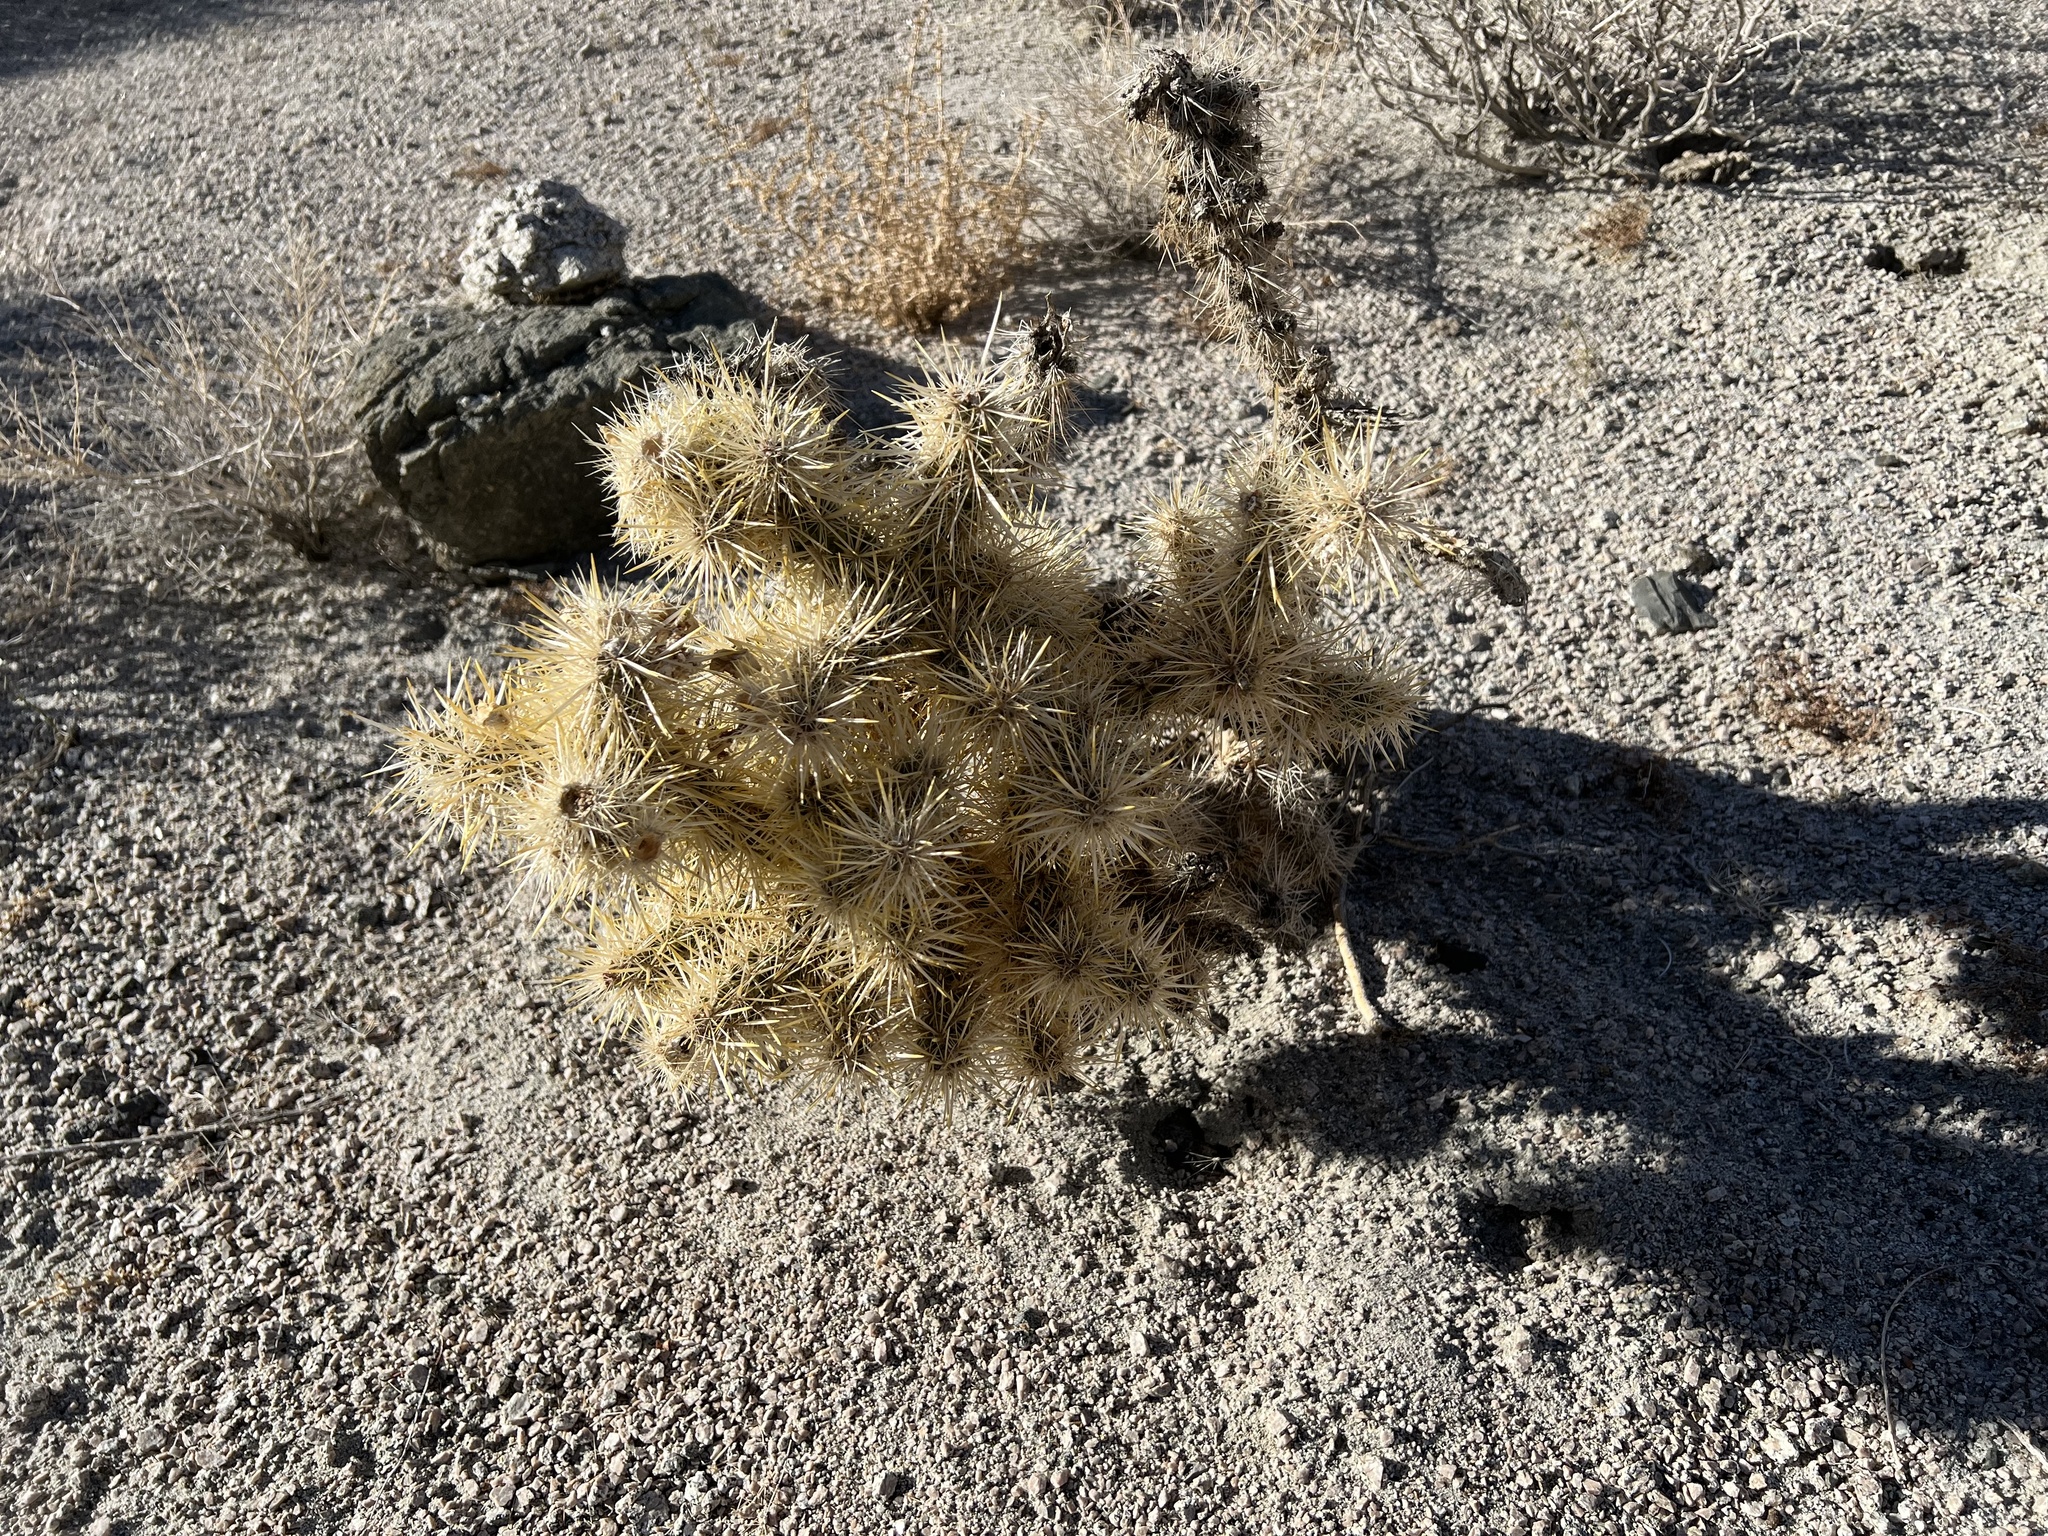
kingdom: Plantae
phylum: Tracheophyta
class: Magnoliopsida
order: Caryophyllales
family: Cactaceae
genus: Cylindropuntia
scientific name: Cylindropuntia echinocarpa
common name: Ground cholla
